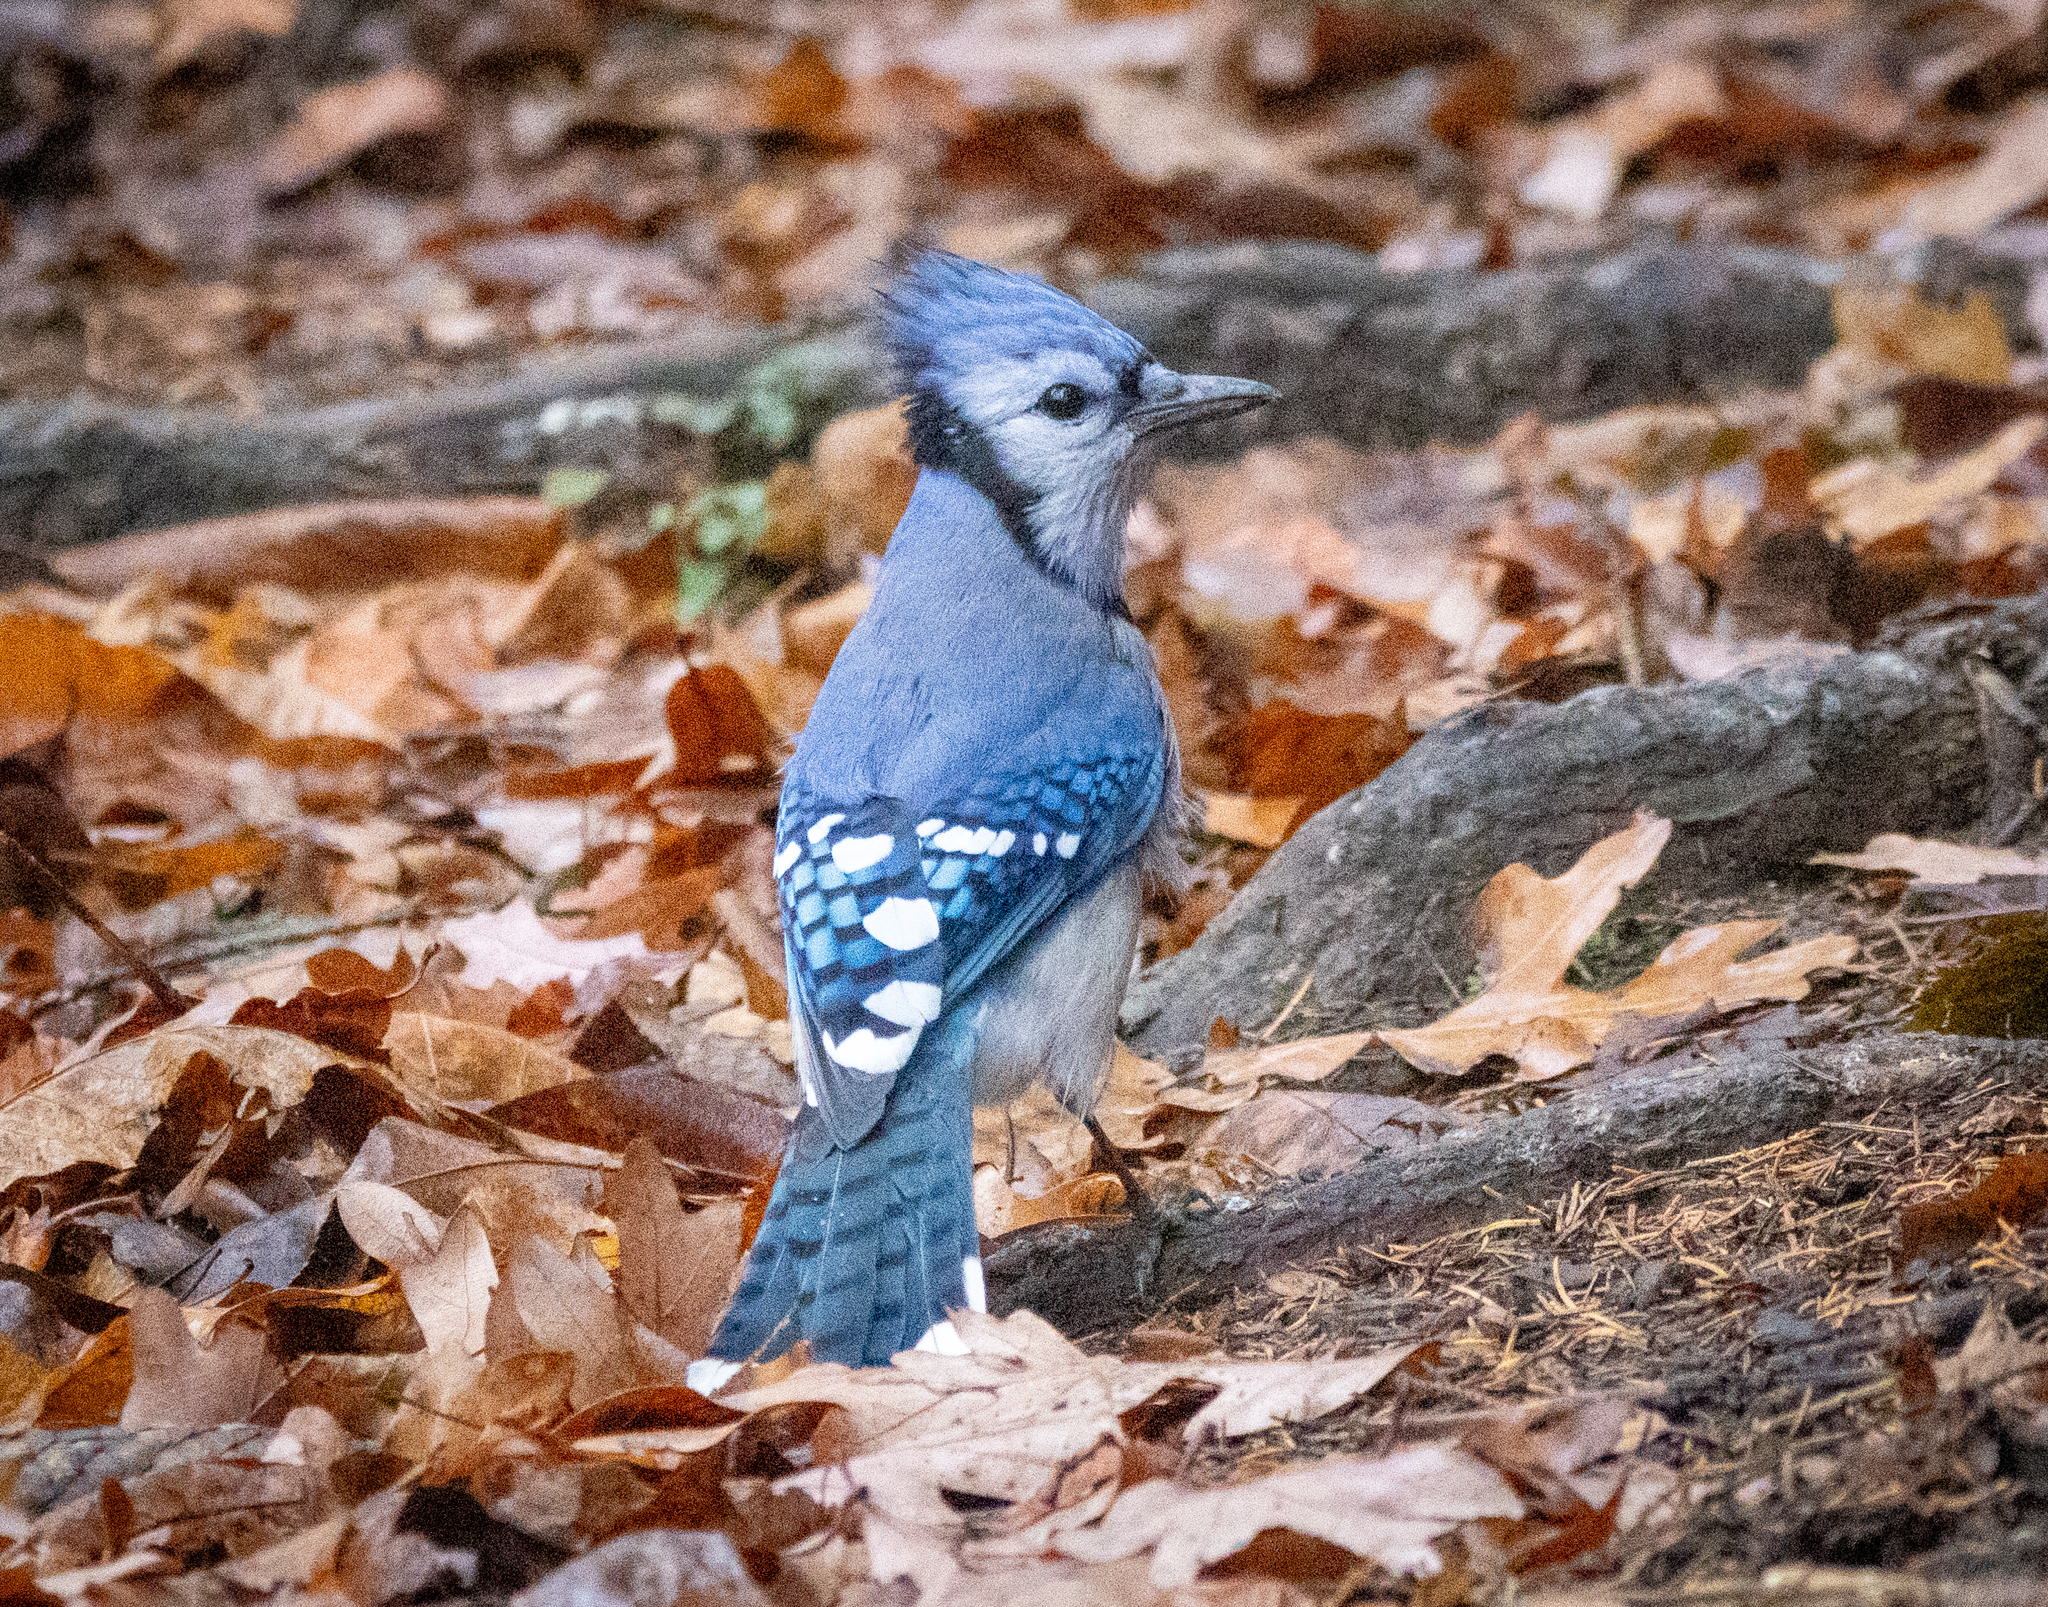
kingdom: Animalia
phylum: Chordata
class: Aves
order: Passeriformes
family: Corvidae
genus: Cyanocitta
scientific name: Cyanocitta cristata
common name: Blue jay
